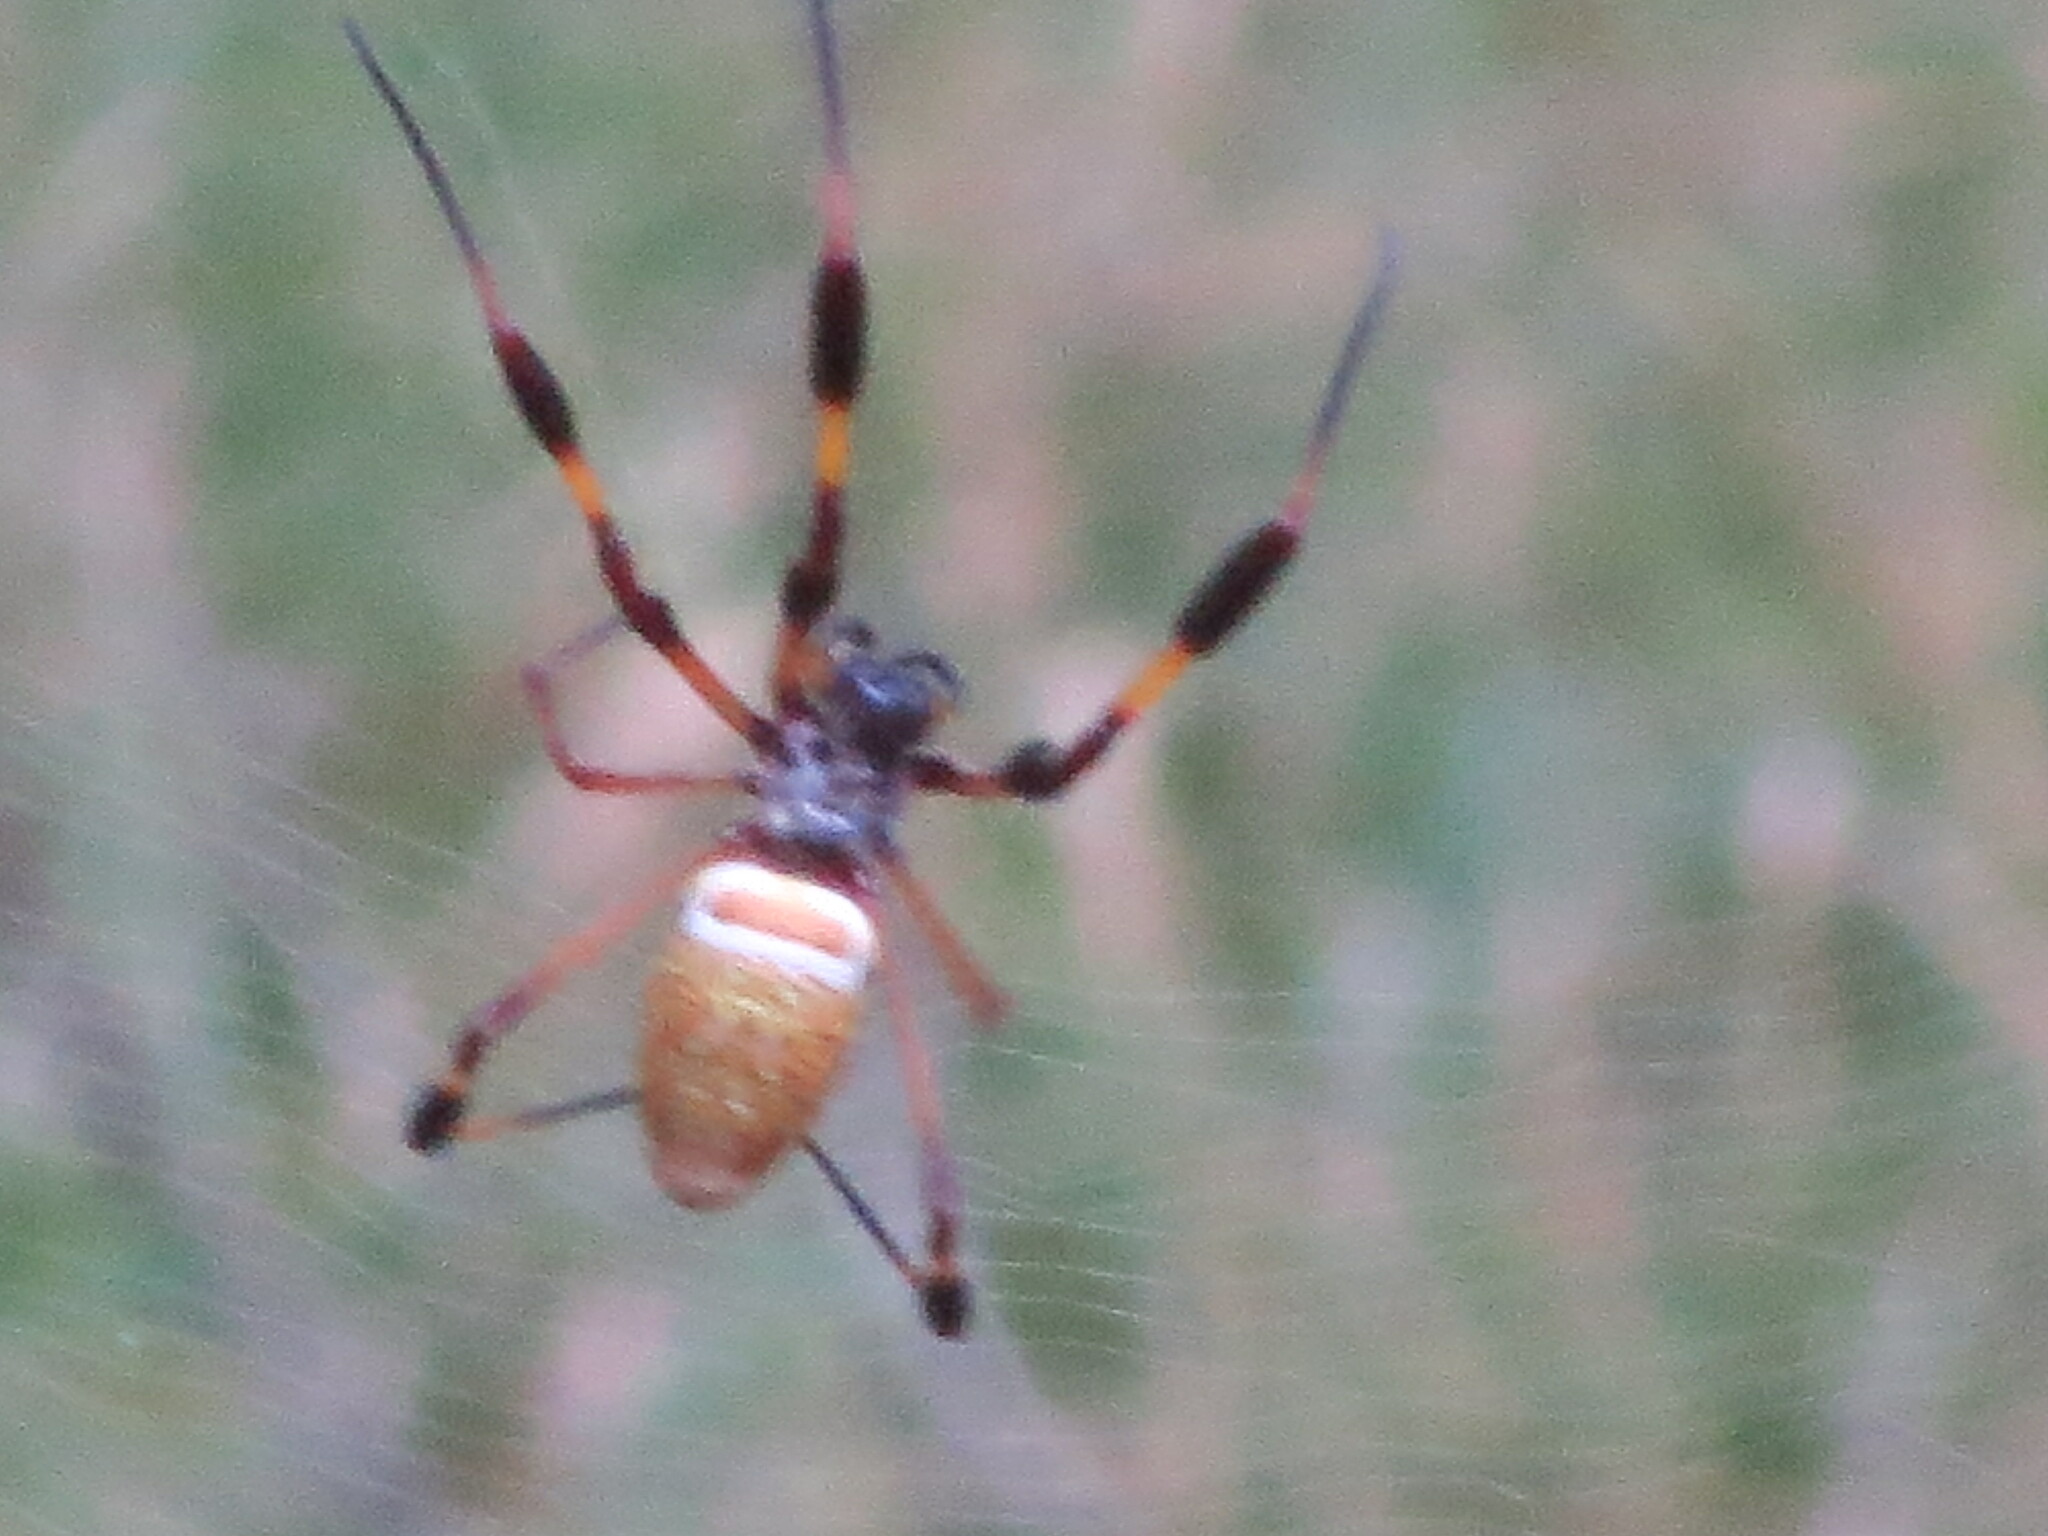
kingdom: Animalia
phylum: Arthropoda
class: Arachnida
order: Araneae
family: Araneidae
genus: Trichonephila
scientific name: Trichonephila clavipes
